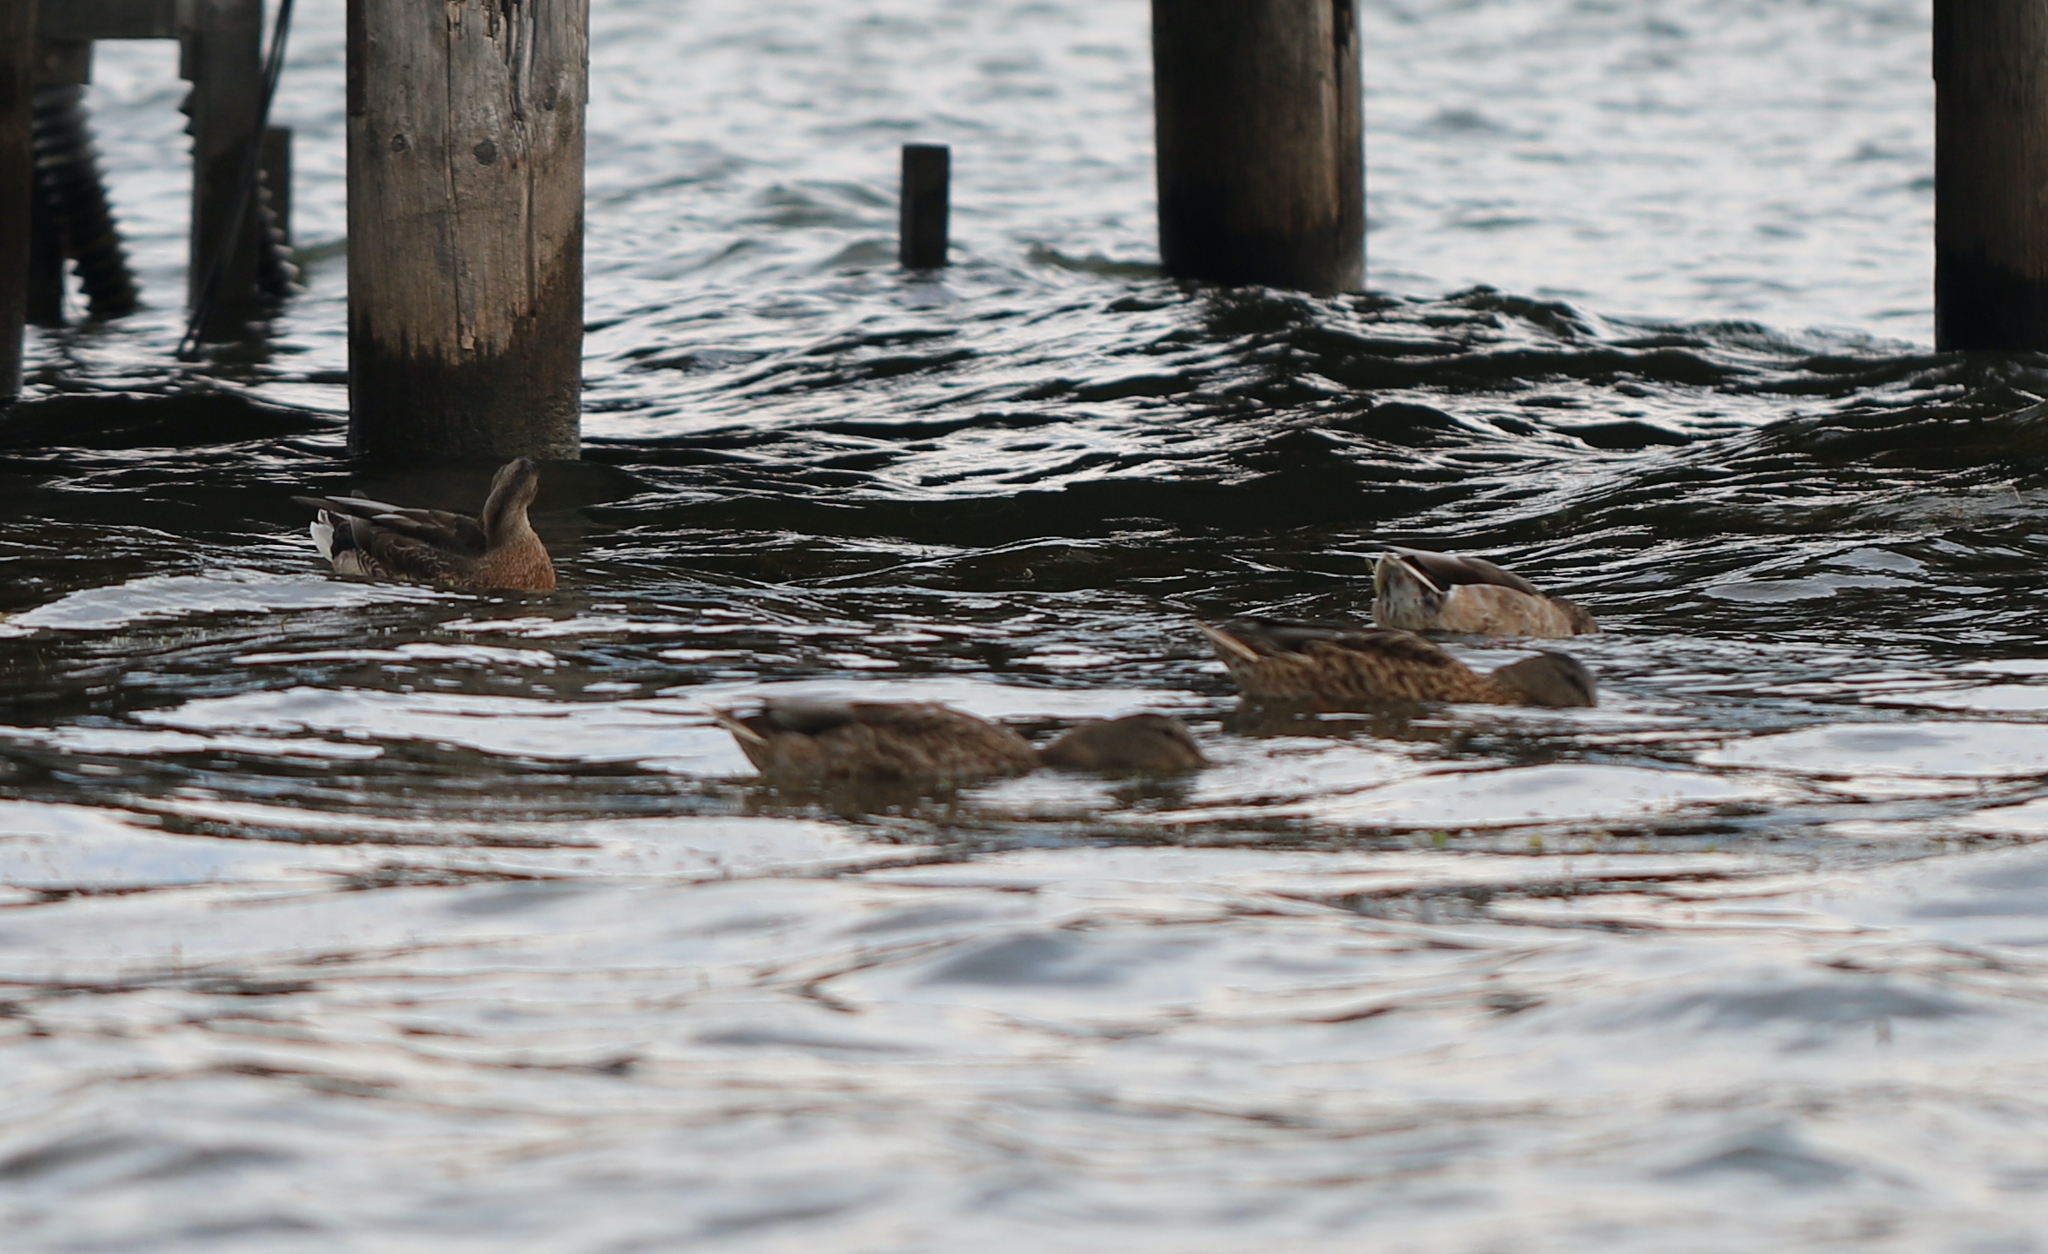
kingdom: Animalia
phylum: Chordata
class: Aves
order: Anseriformes
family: Anatidae
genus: Anas
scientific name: Anas platyrhynchos
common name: Mallard
